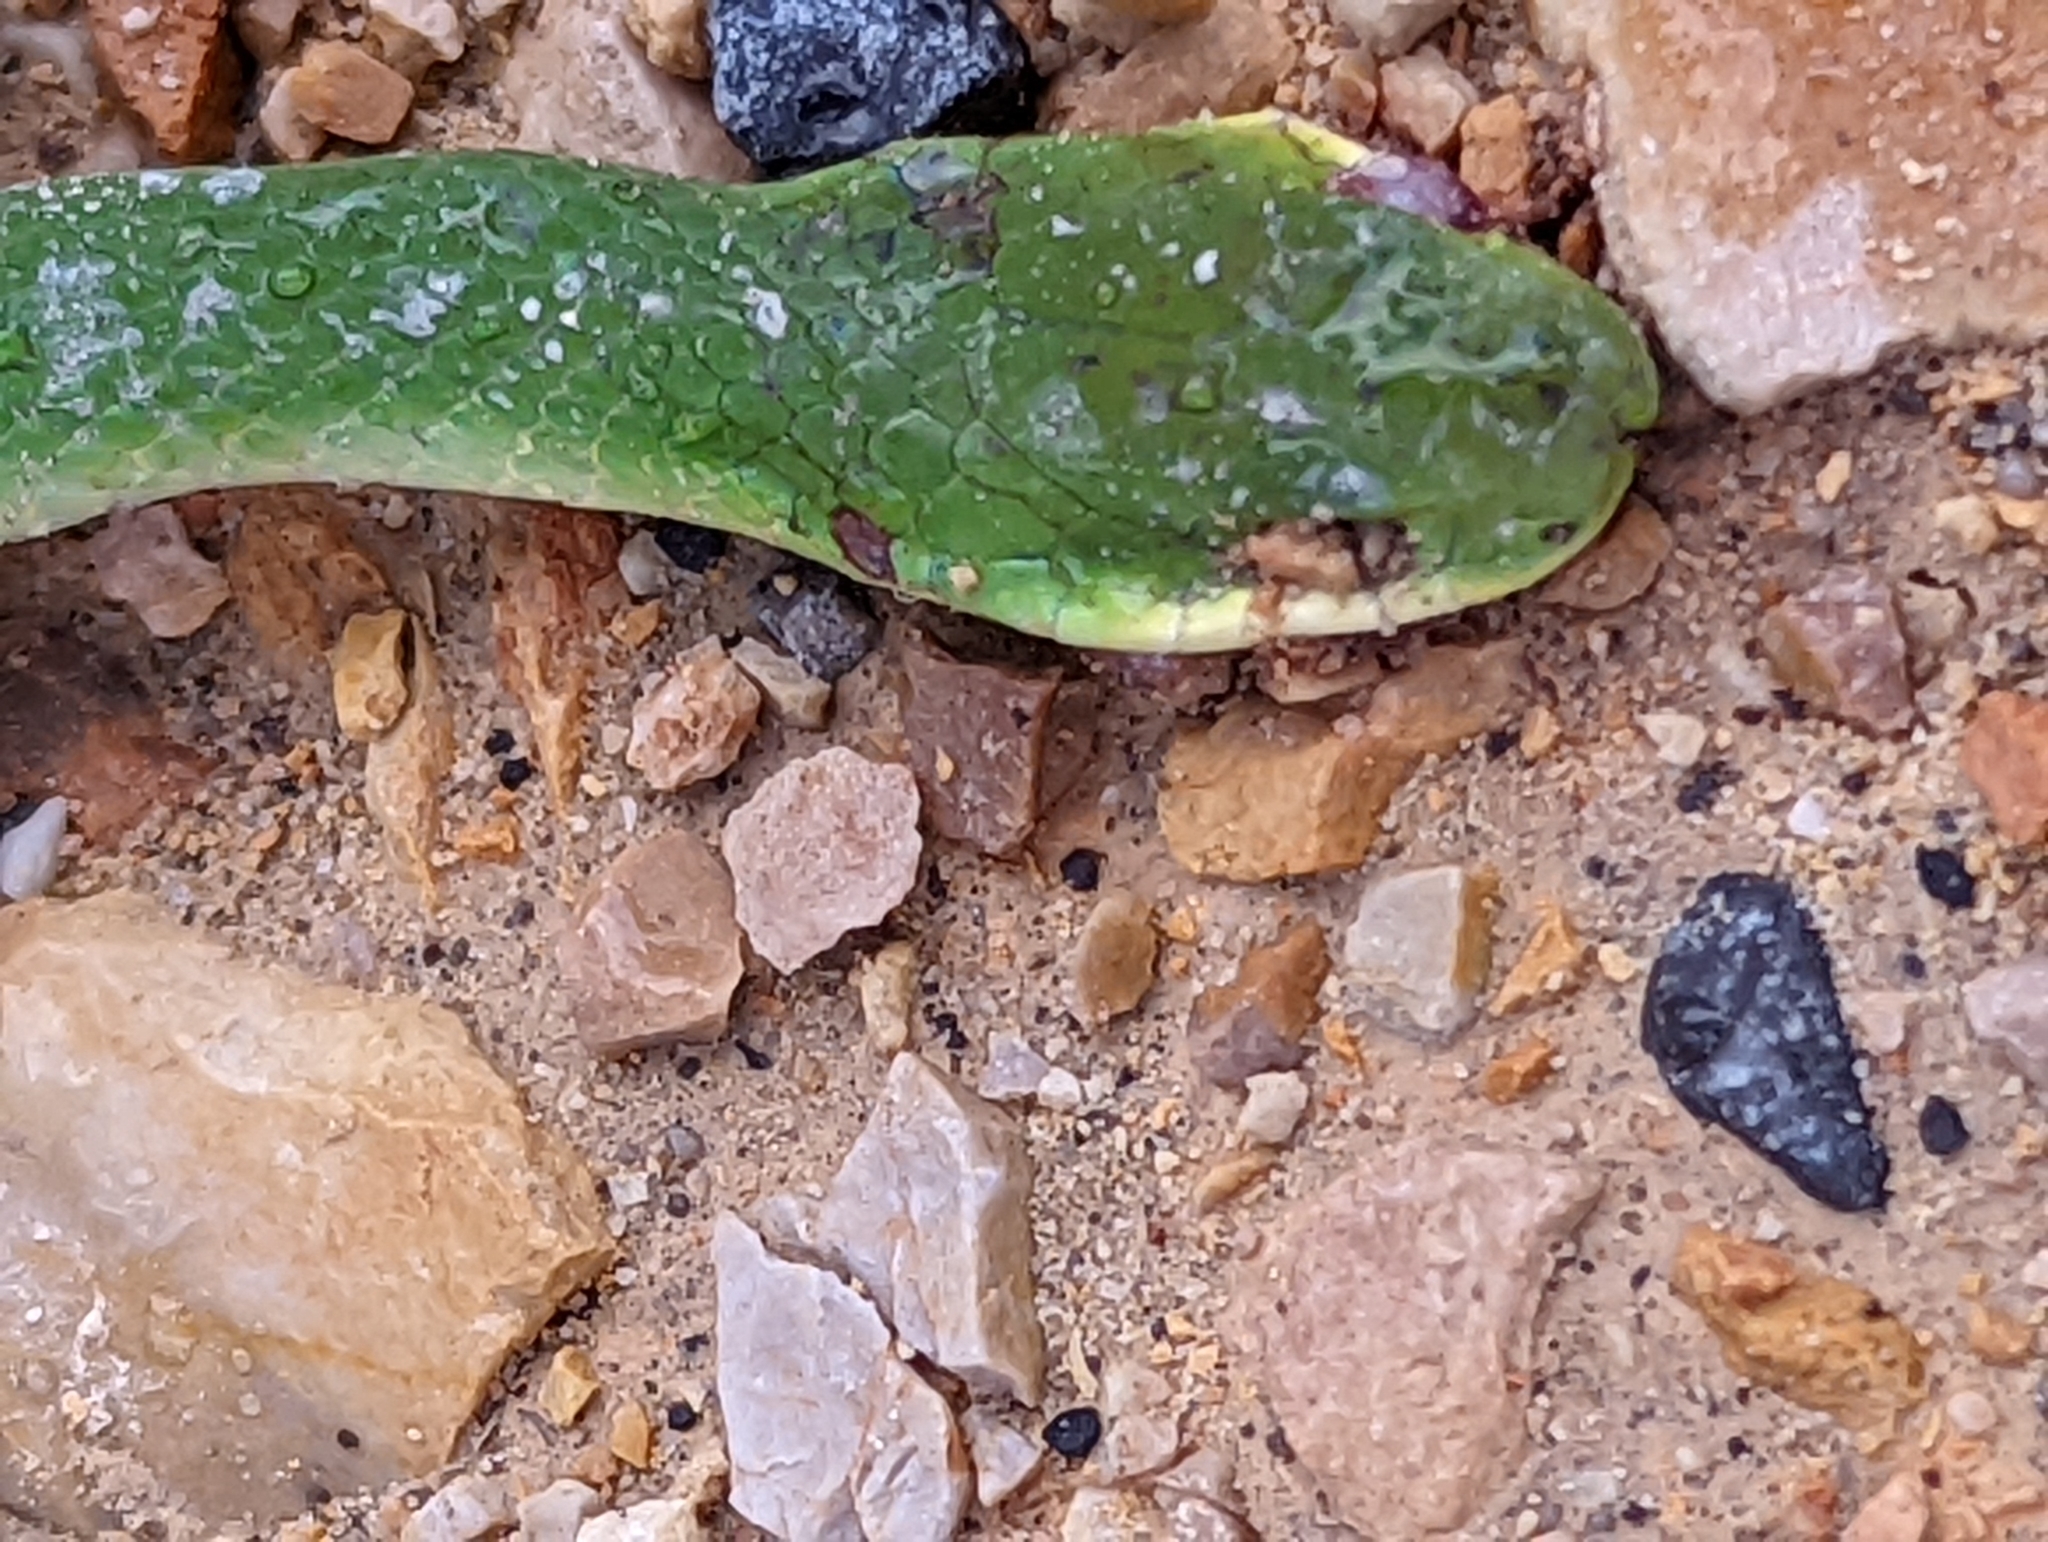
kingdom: Animalia
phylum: Chordata
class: Squamata
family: Colubridae
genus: Opheodrys
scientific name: Opheodrys vernalis
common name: Smooth green snake
